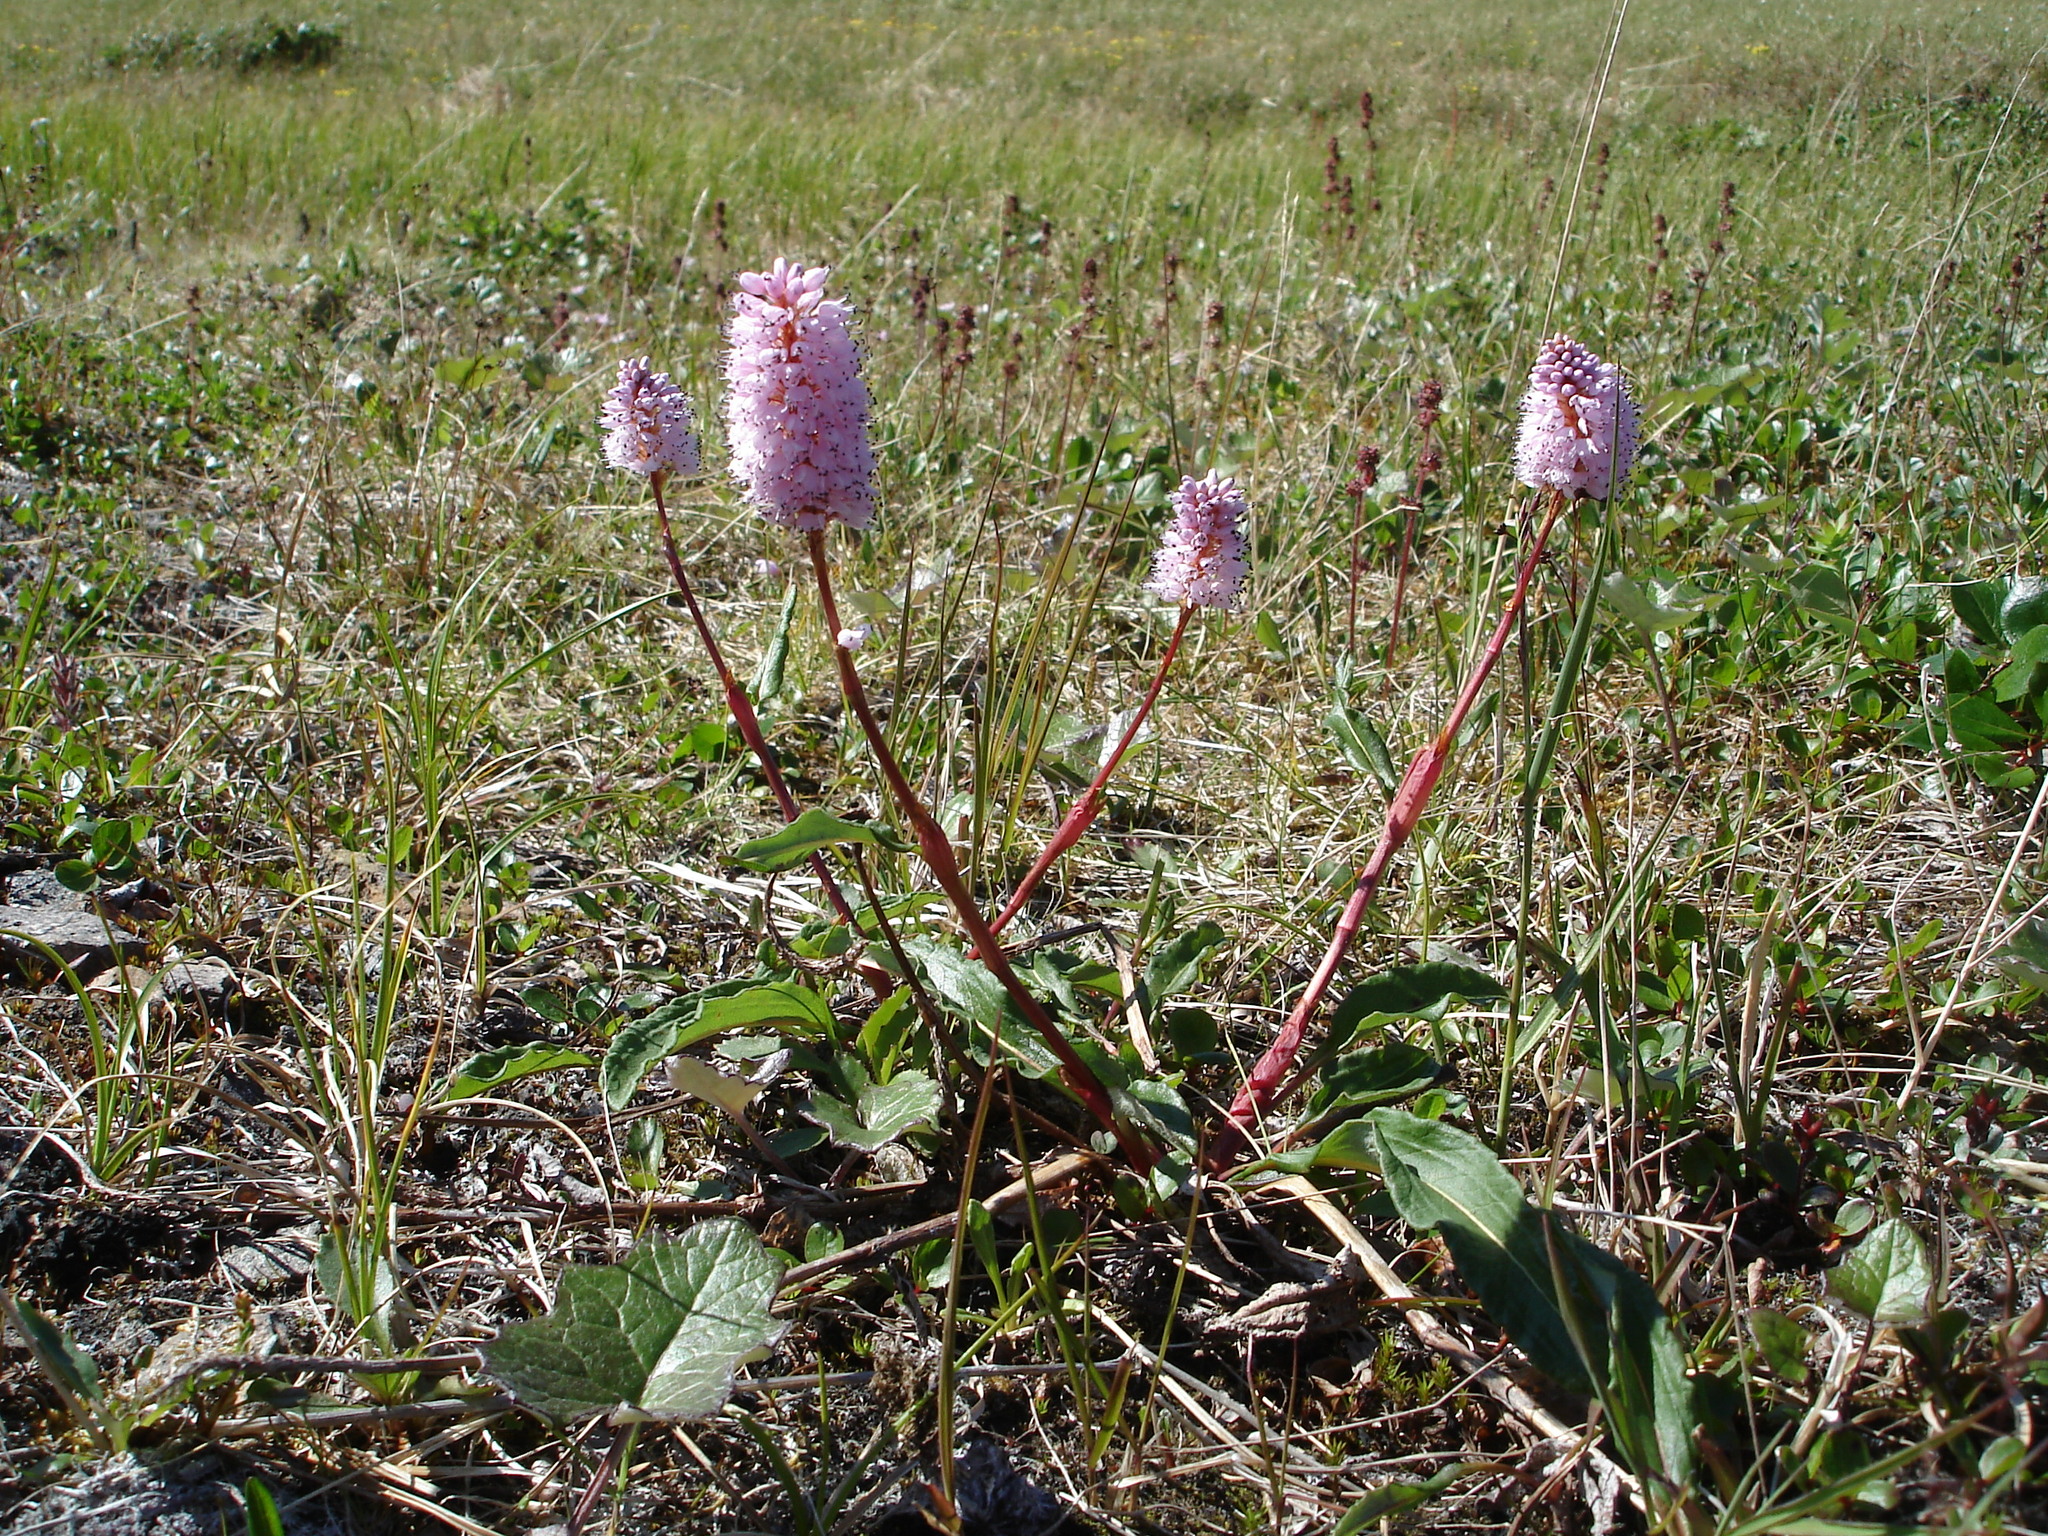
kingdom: Plantae
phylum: Tracheophyta
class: Magnoliopsida
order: Caryophyllales
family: Polygonaceae
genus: Bistorta
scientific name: Bistorta plumosa
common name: Meadow bistort
